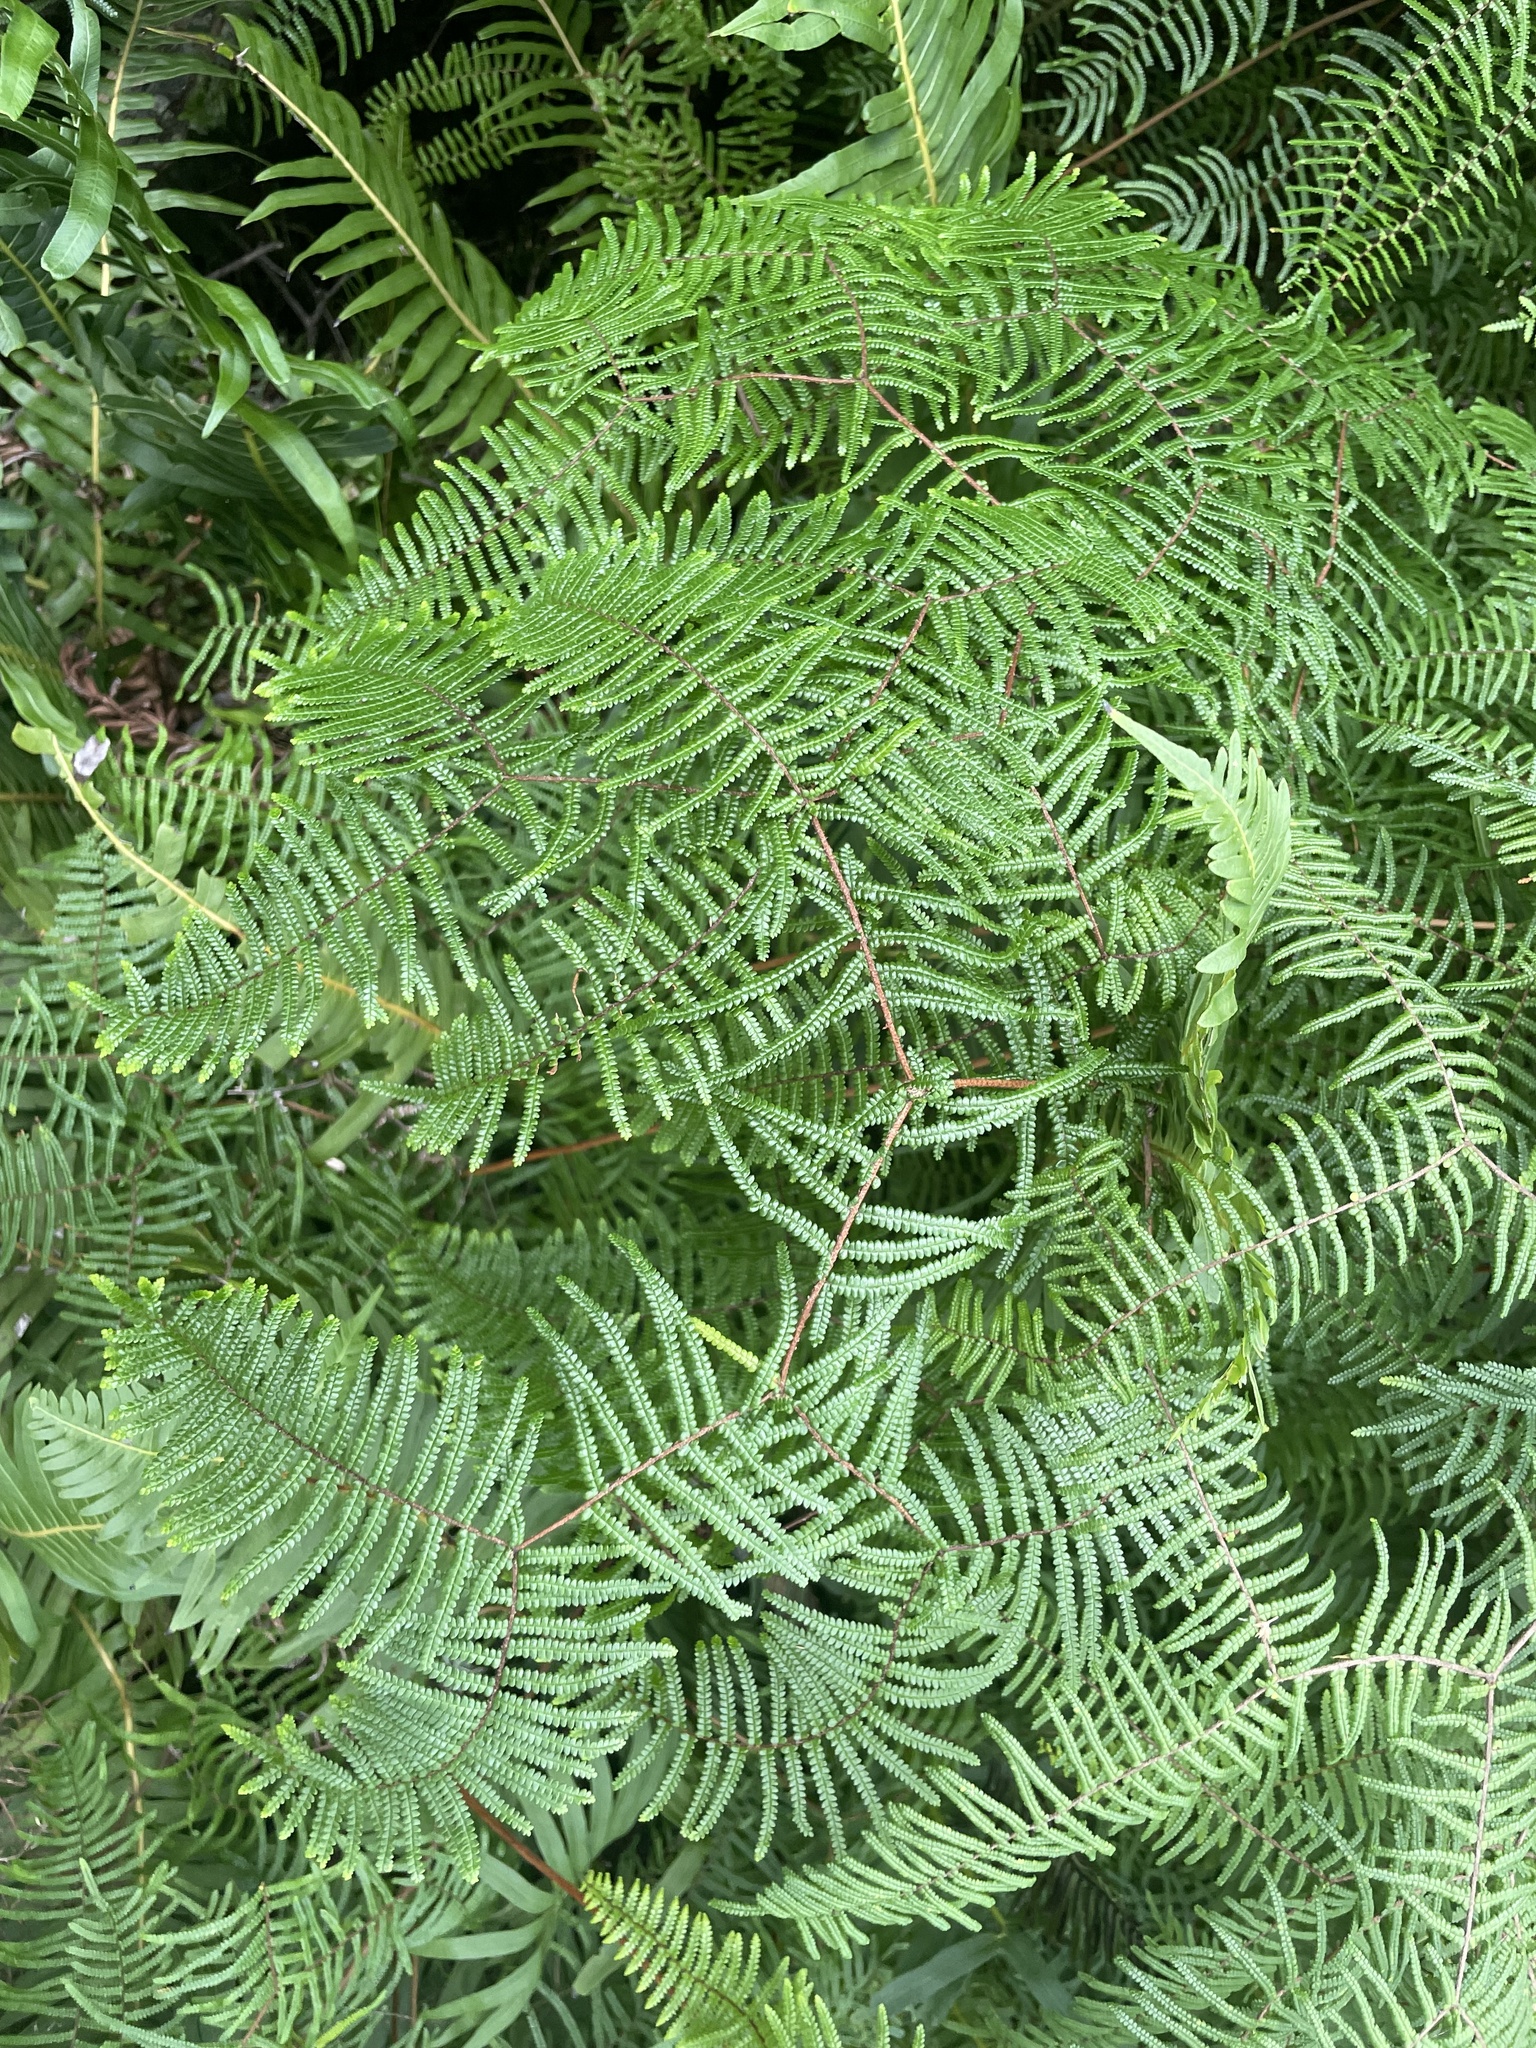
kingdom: Plantae
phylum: Tracheophyta
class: Polypodiopsida
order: Gleicheniales
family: Gleicheniaceae
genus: Gleichenia
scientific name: Gleichenia microphylla
